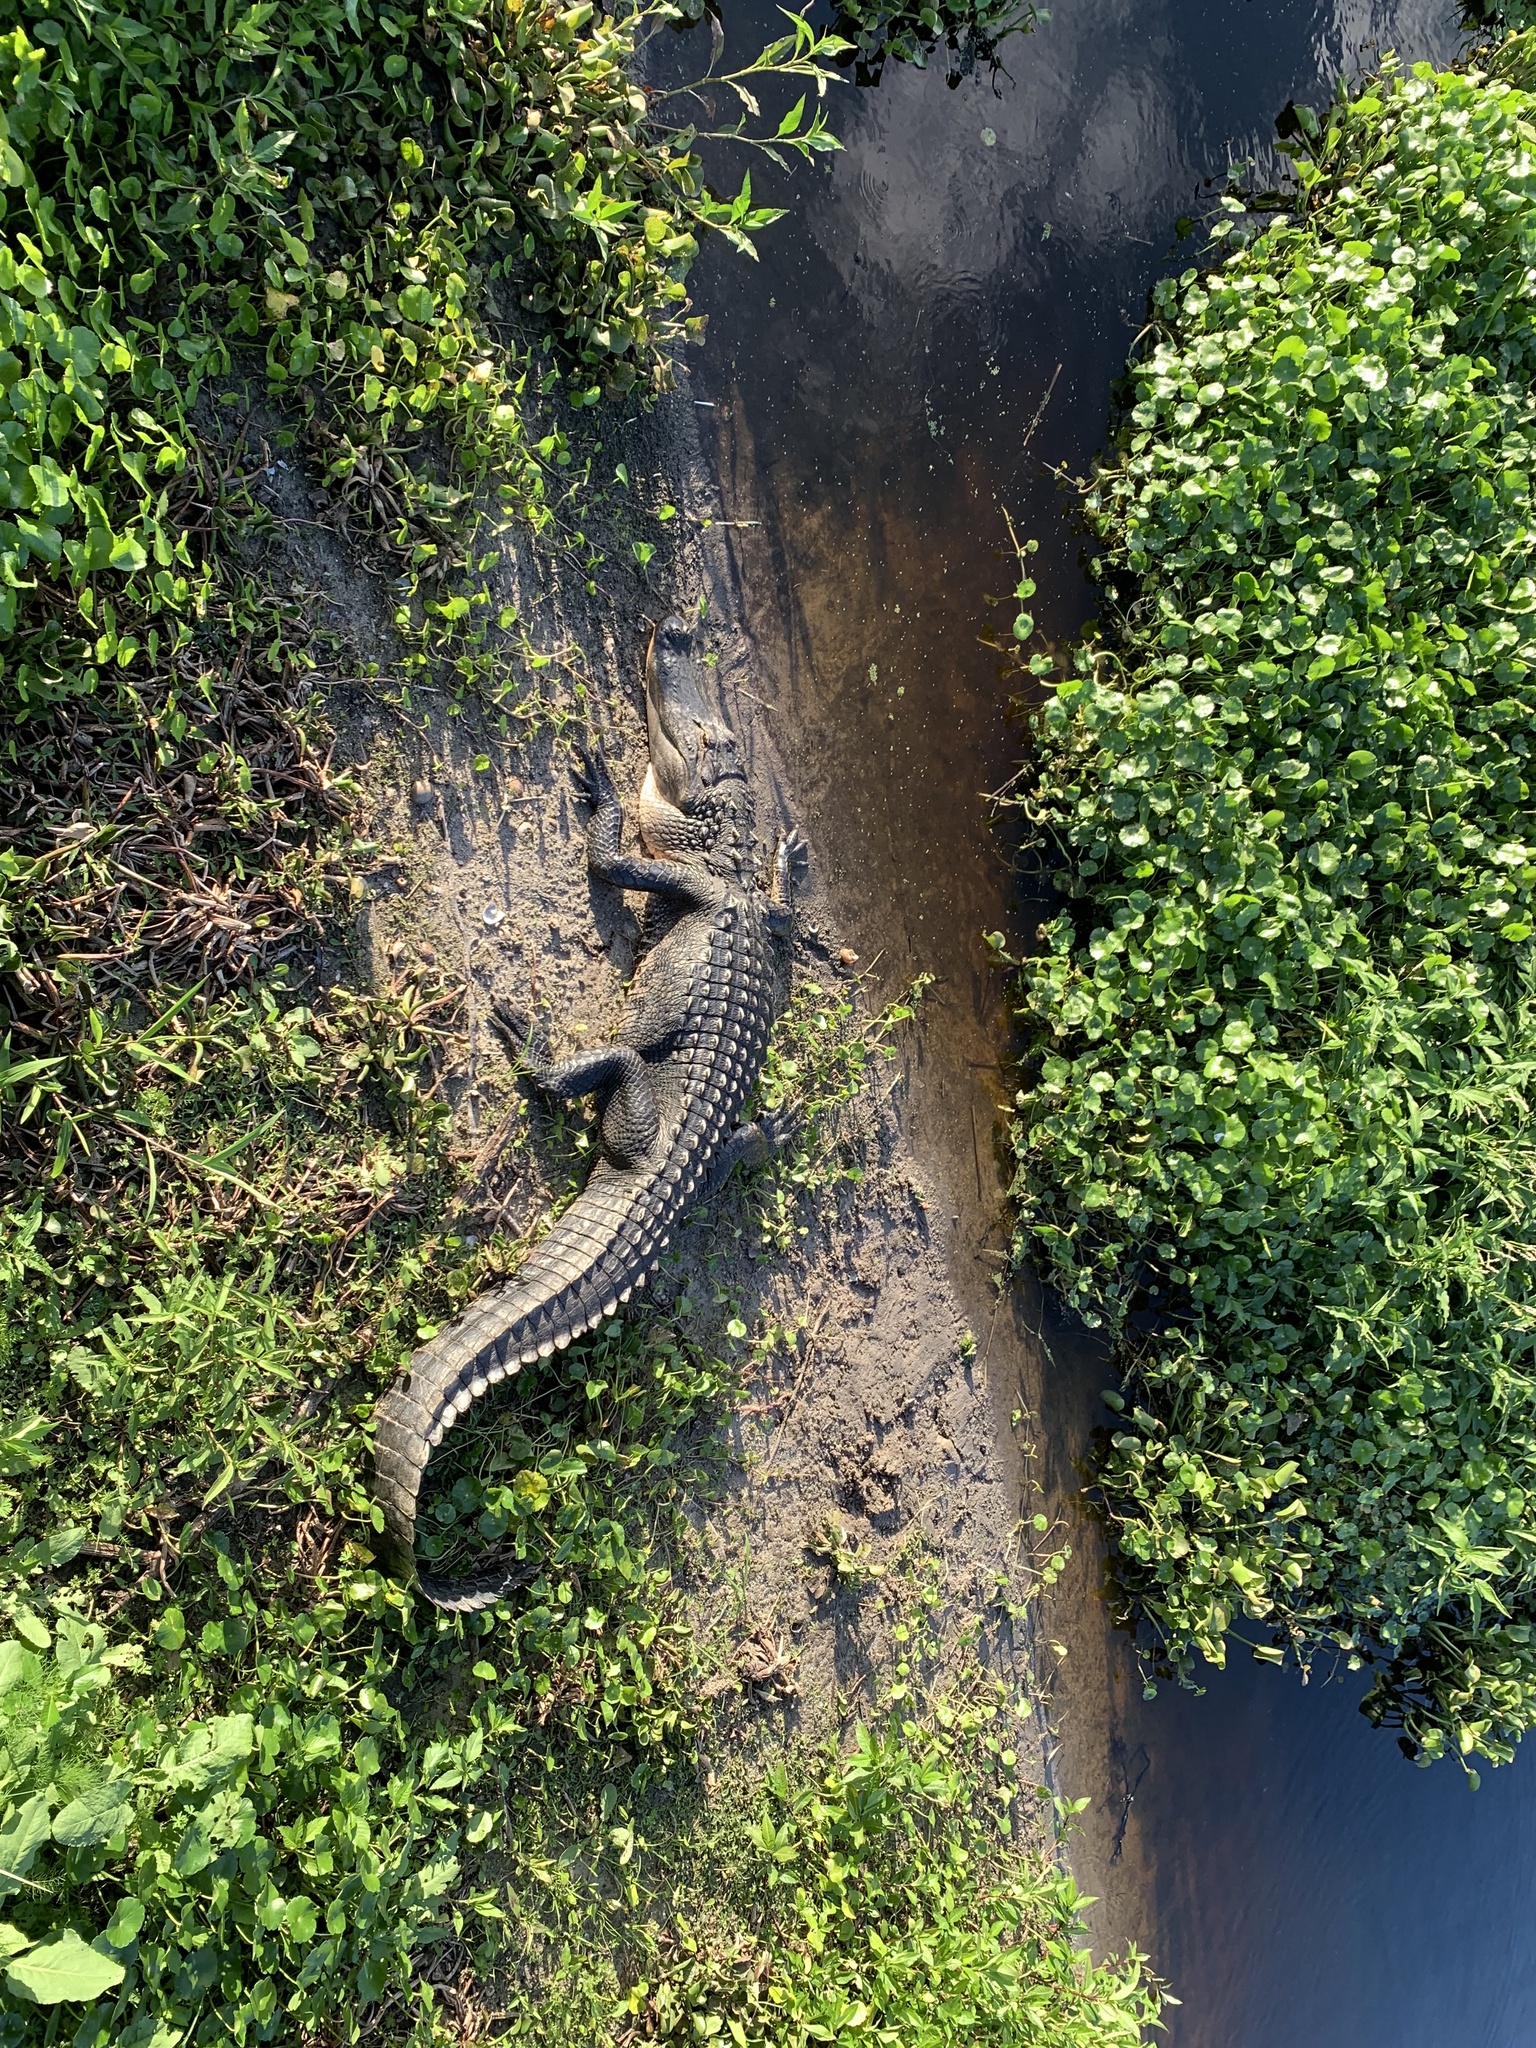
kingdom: Animalia
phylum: Chordata
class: Crocodylia
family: Alligatoridae
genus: Alligator
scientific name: Alligator mississippiensis
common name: American alligator
